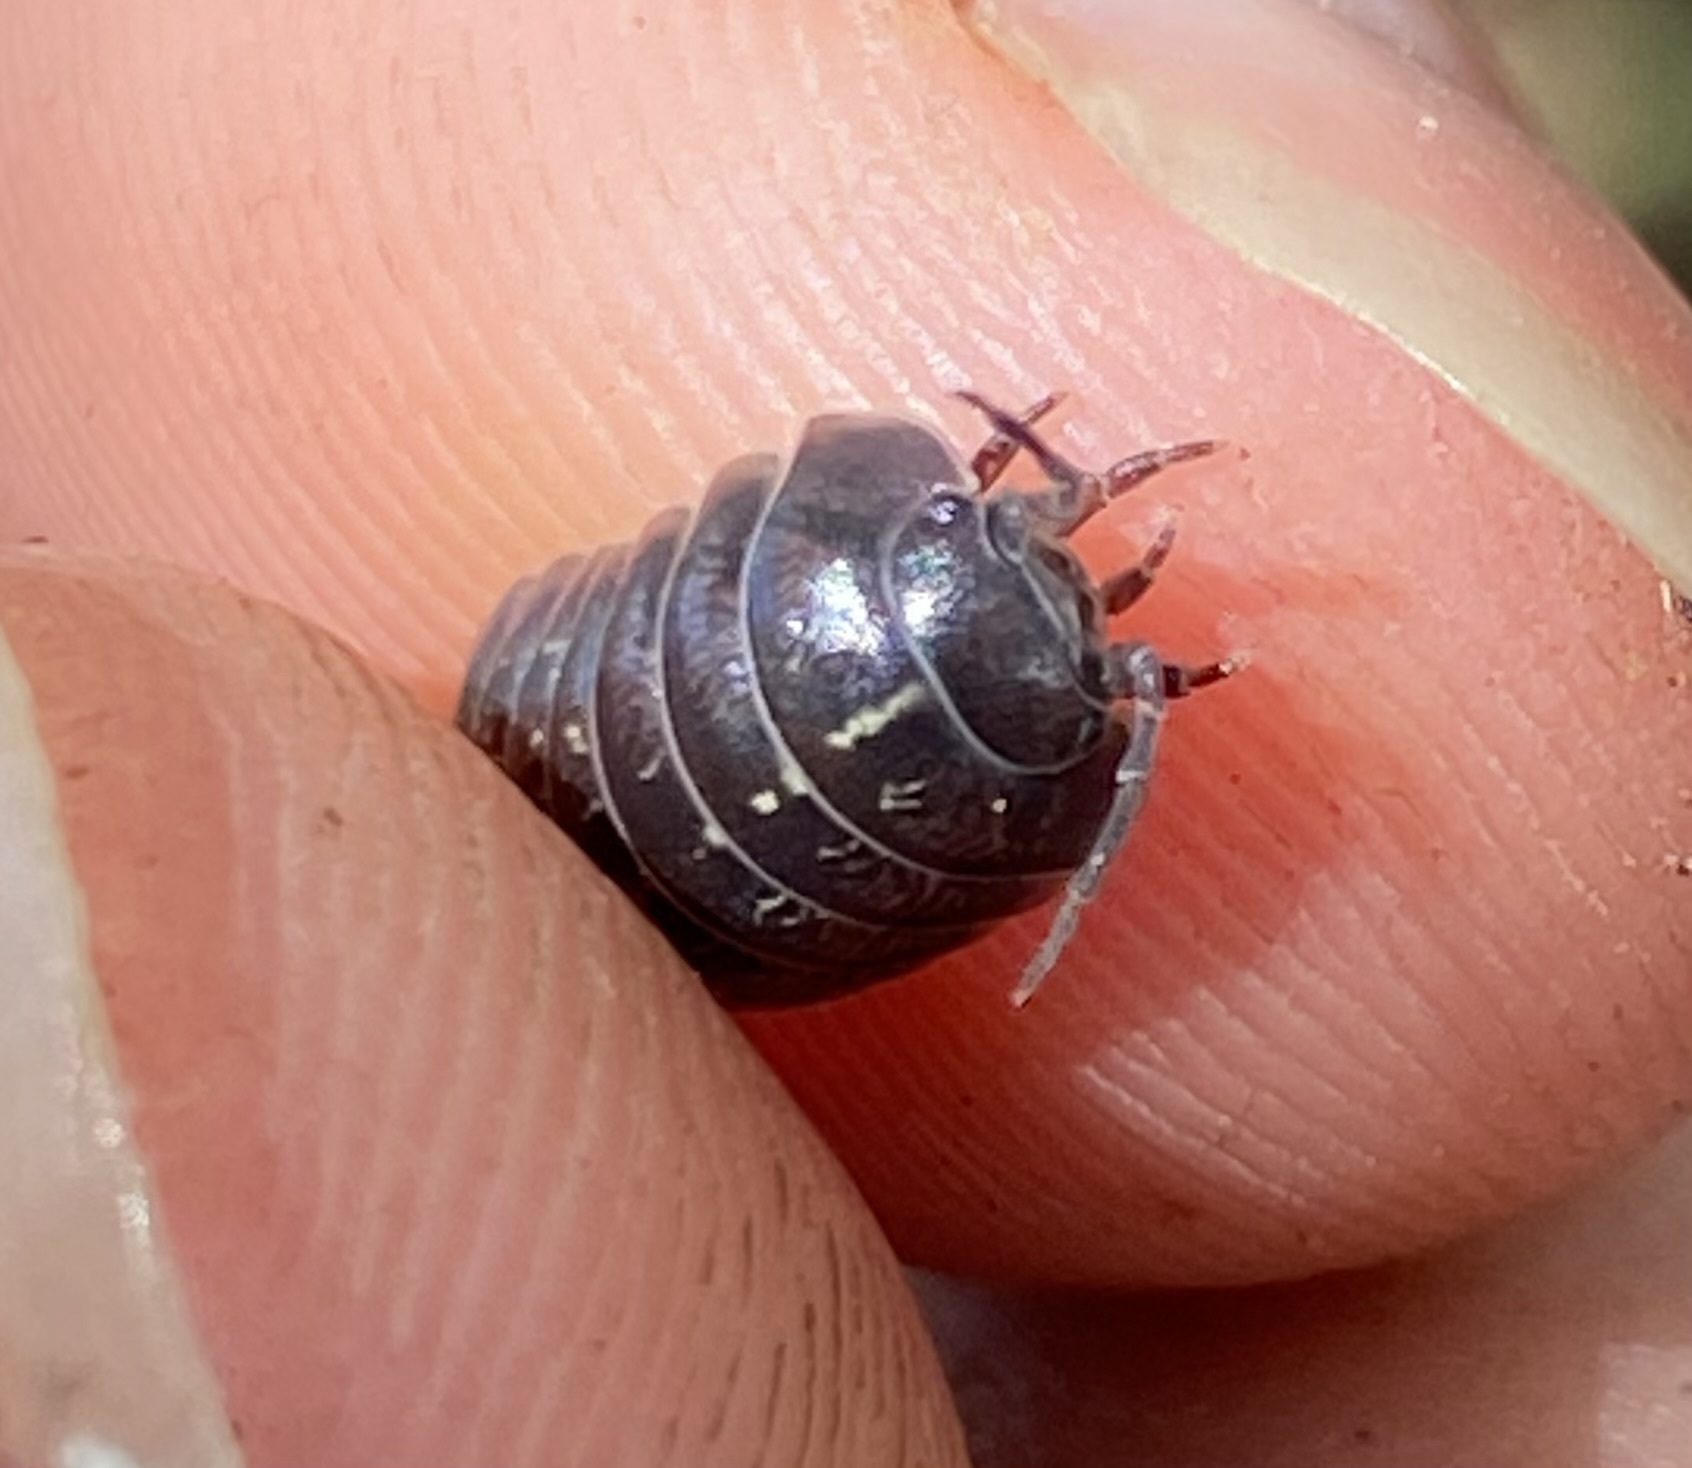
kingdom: Animalia
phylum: Arthropoda
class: Malacostraca
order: Isopoda
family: Armadillidiidae
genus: Armadillidium
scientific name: Armadillidium vulgare
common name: Common pill woodlouse
